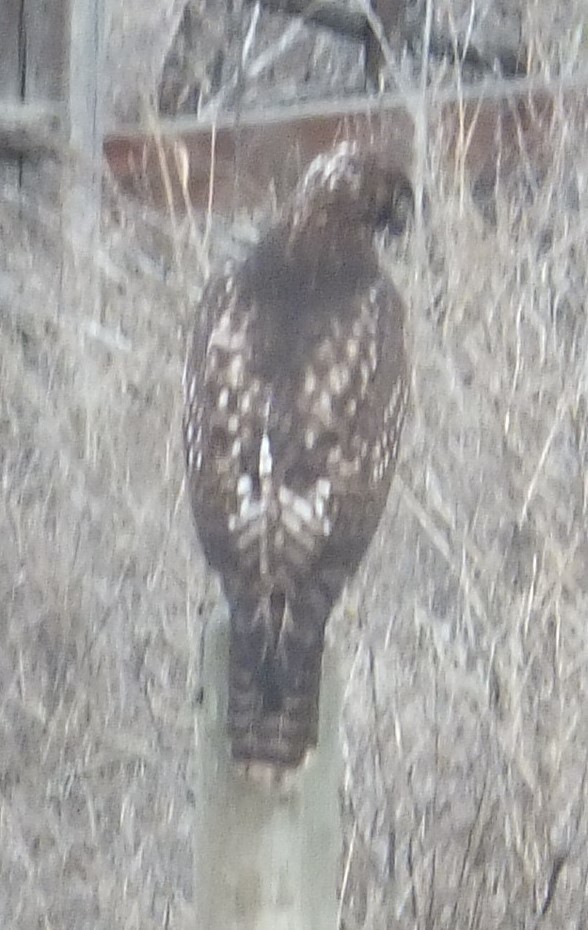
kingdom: Animalia
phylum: Chordata
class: Aves
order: Accipitriformes
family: Accipitridae
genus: Buteo
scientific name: Buteo jamaicensis
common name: Red-tailed hawk
